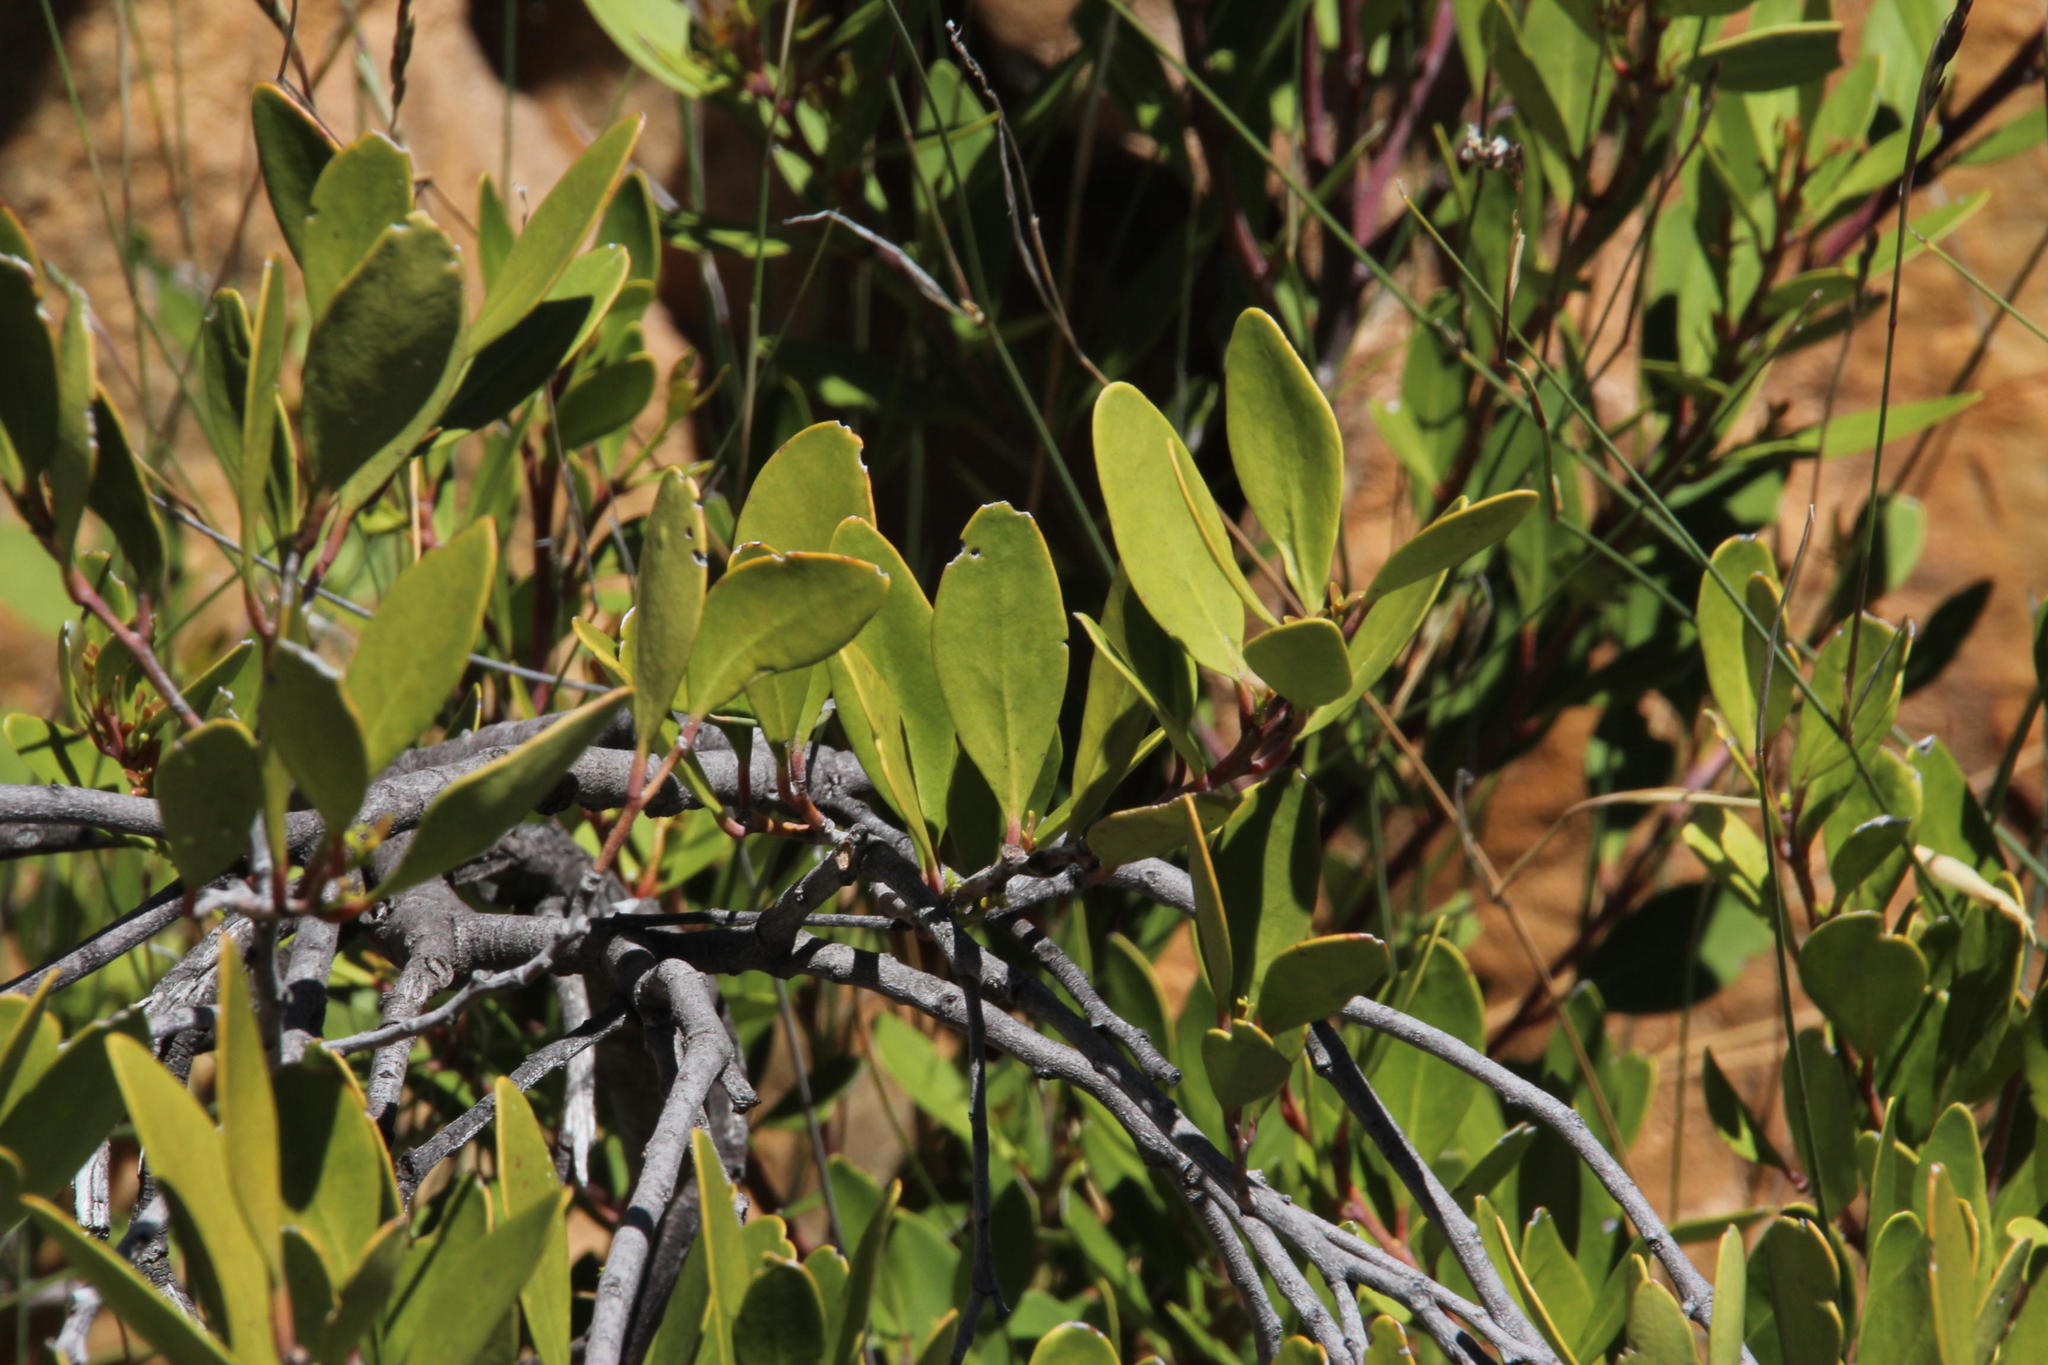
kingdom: Plantae
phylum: Tracheophyta
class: Magnoliopsida
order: Celastrales
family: Celastraceae
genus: Gymnosporia
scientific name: Gymnosporia laurina
